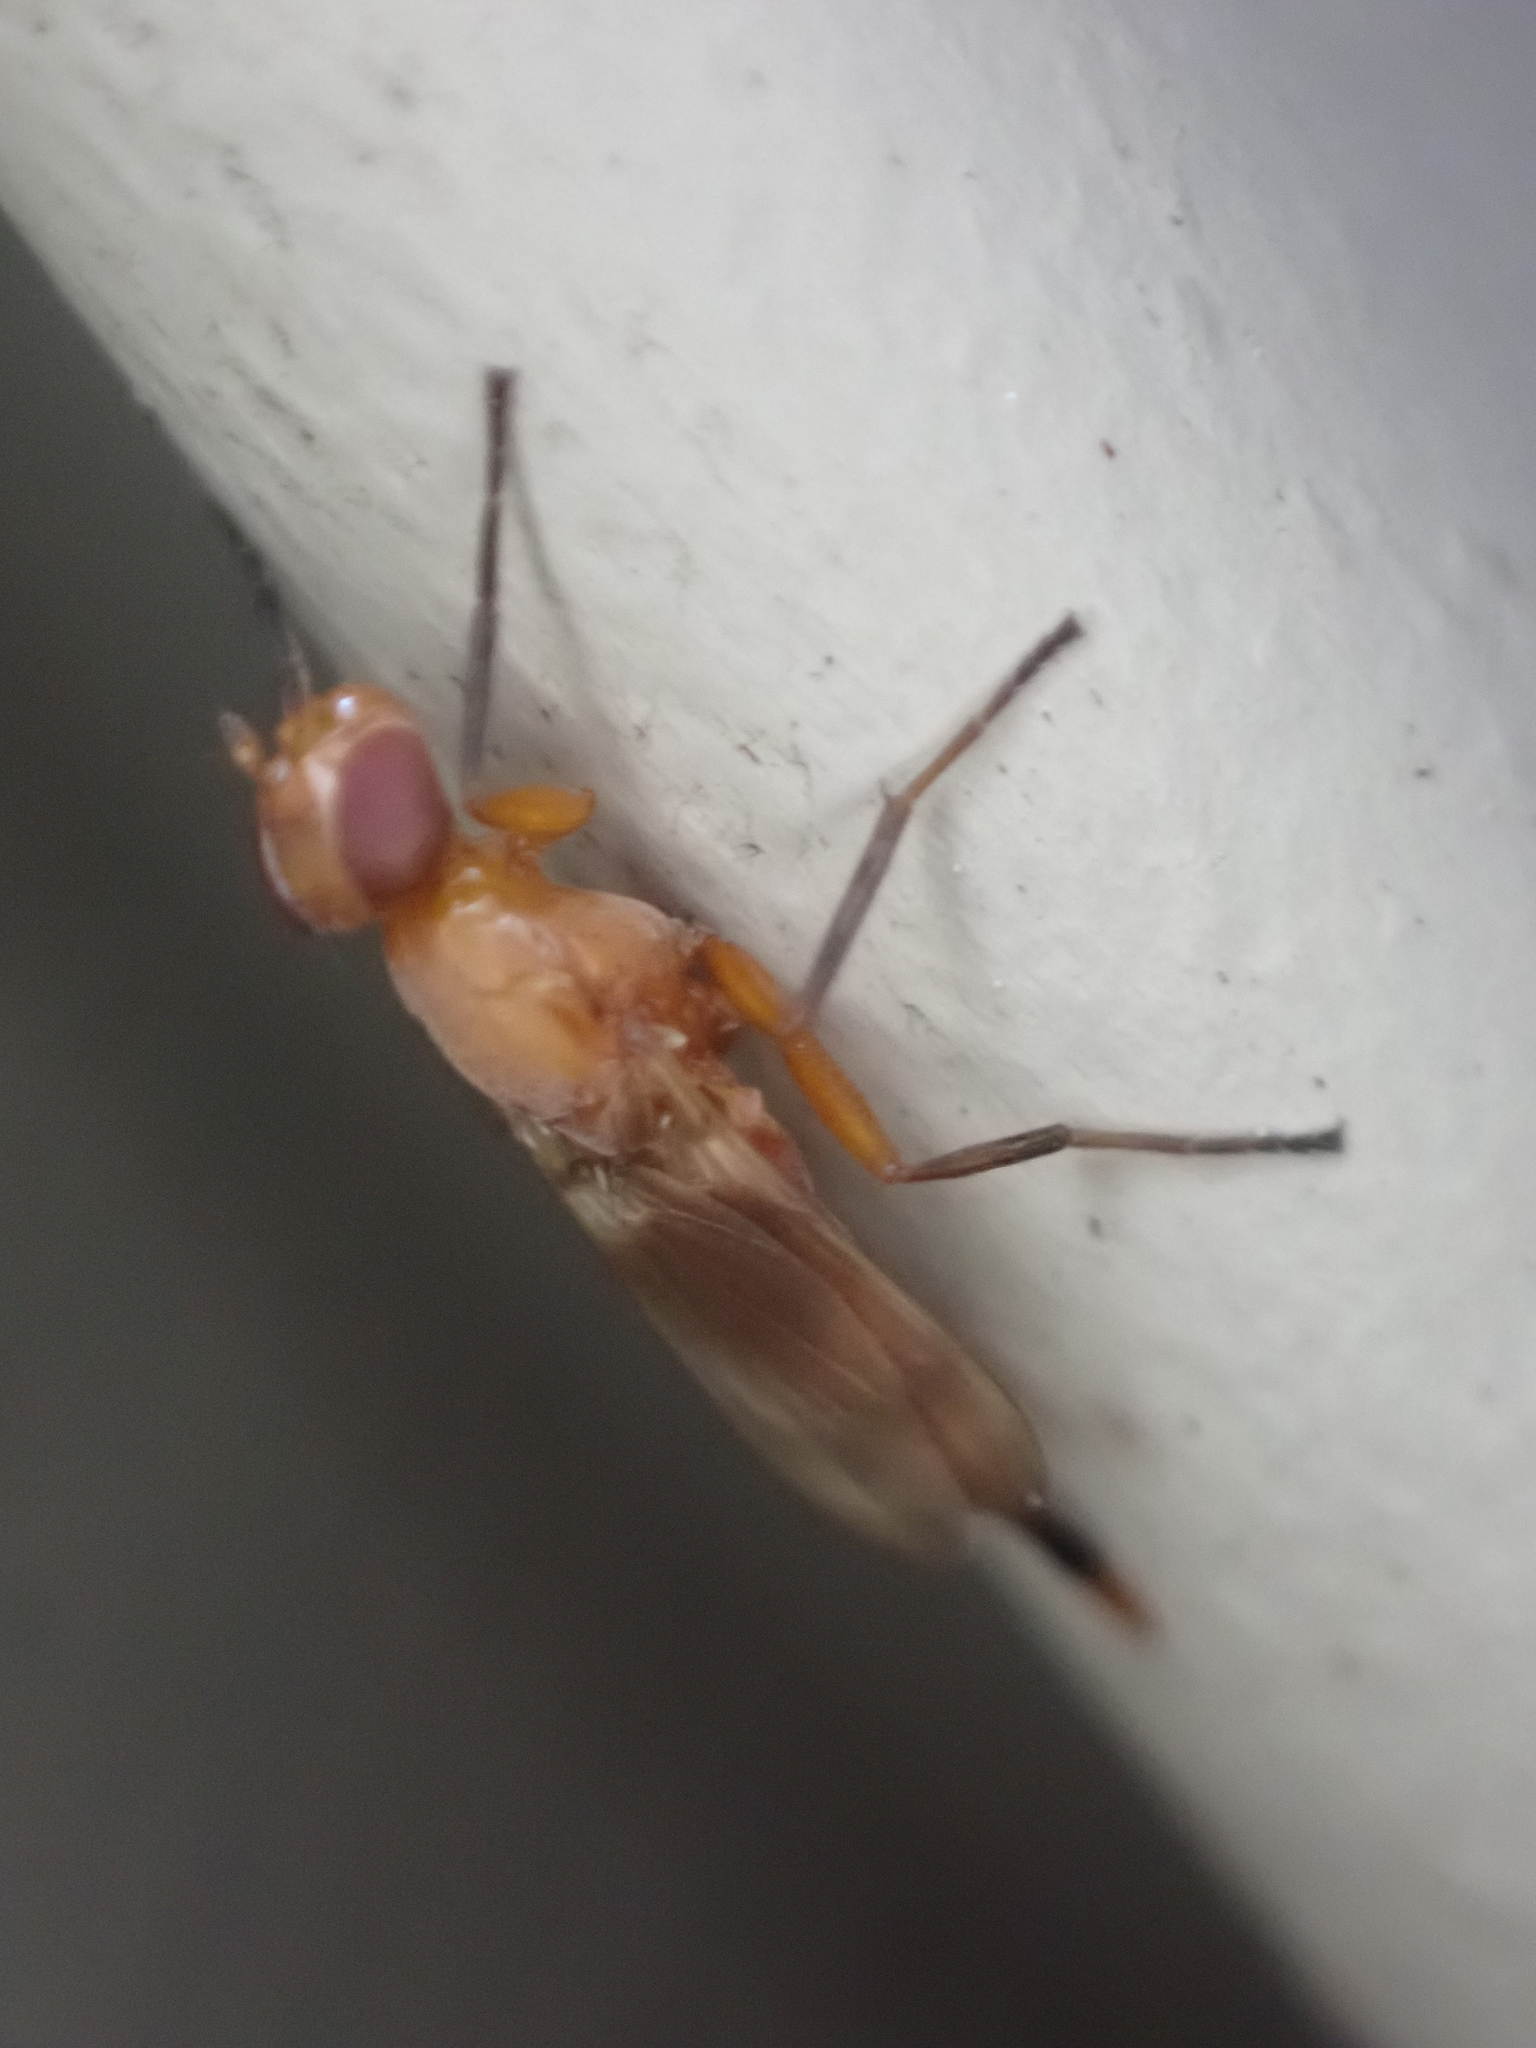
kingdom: Animalia
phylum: Arthropoda
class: Insecta
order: Diptera
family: Ulidiidae
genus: Zacompsia
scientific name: Zacompsia fulva
